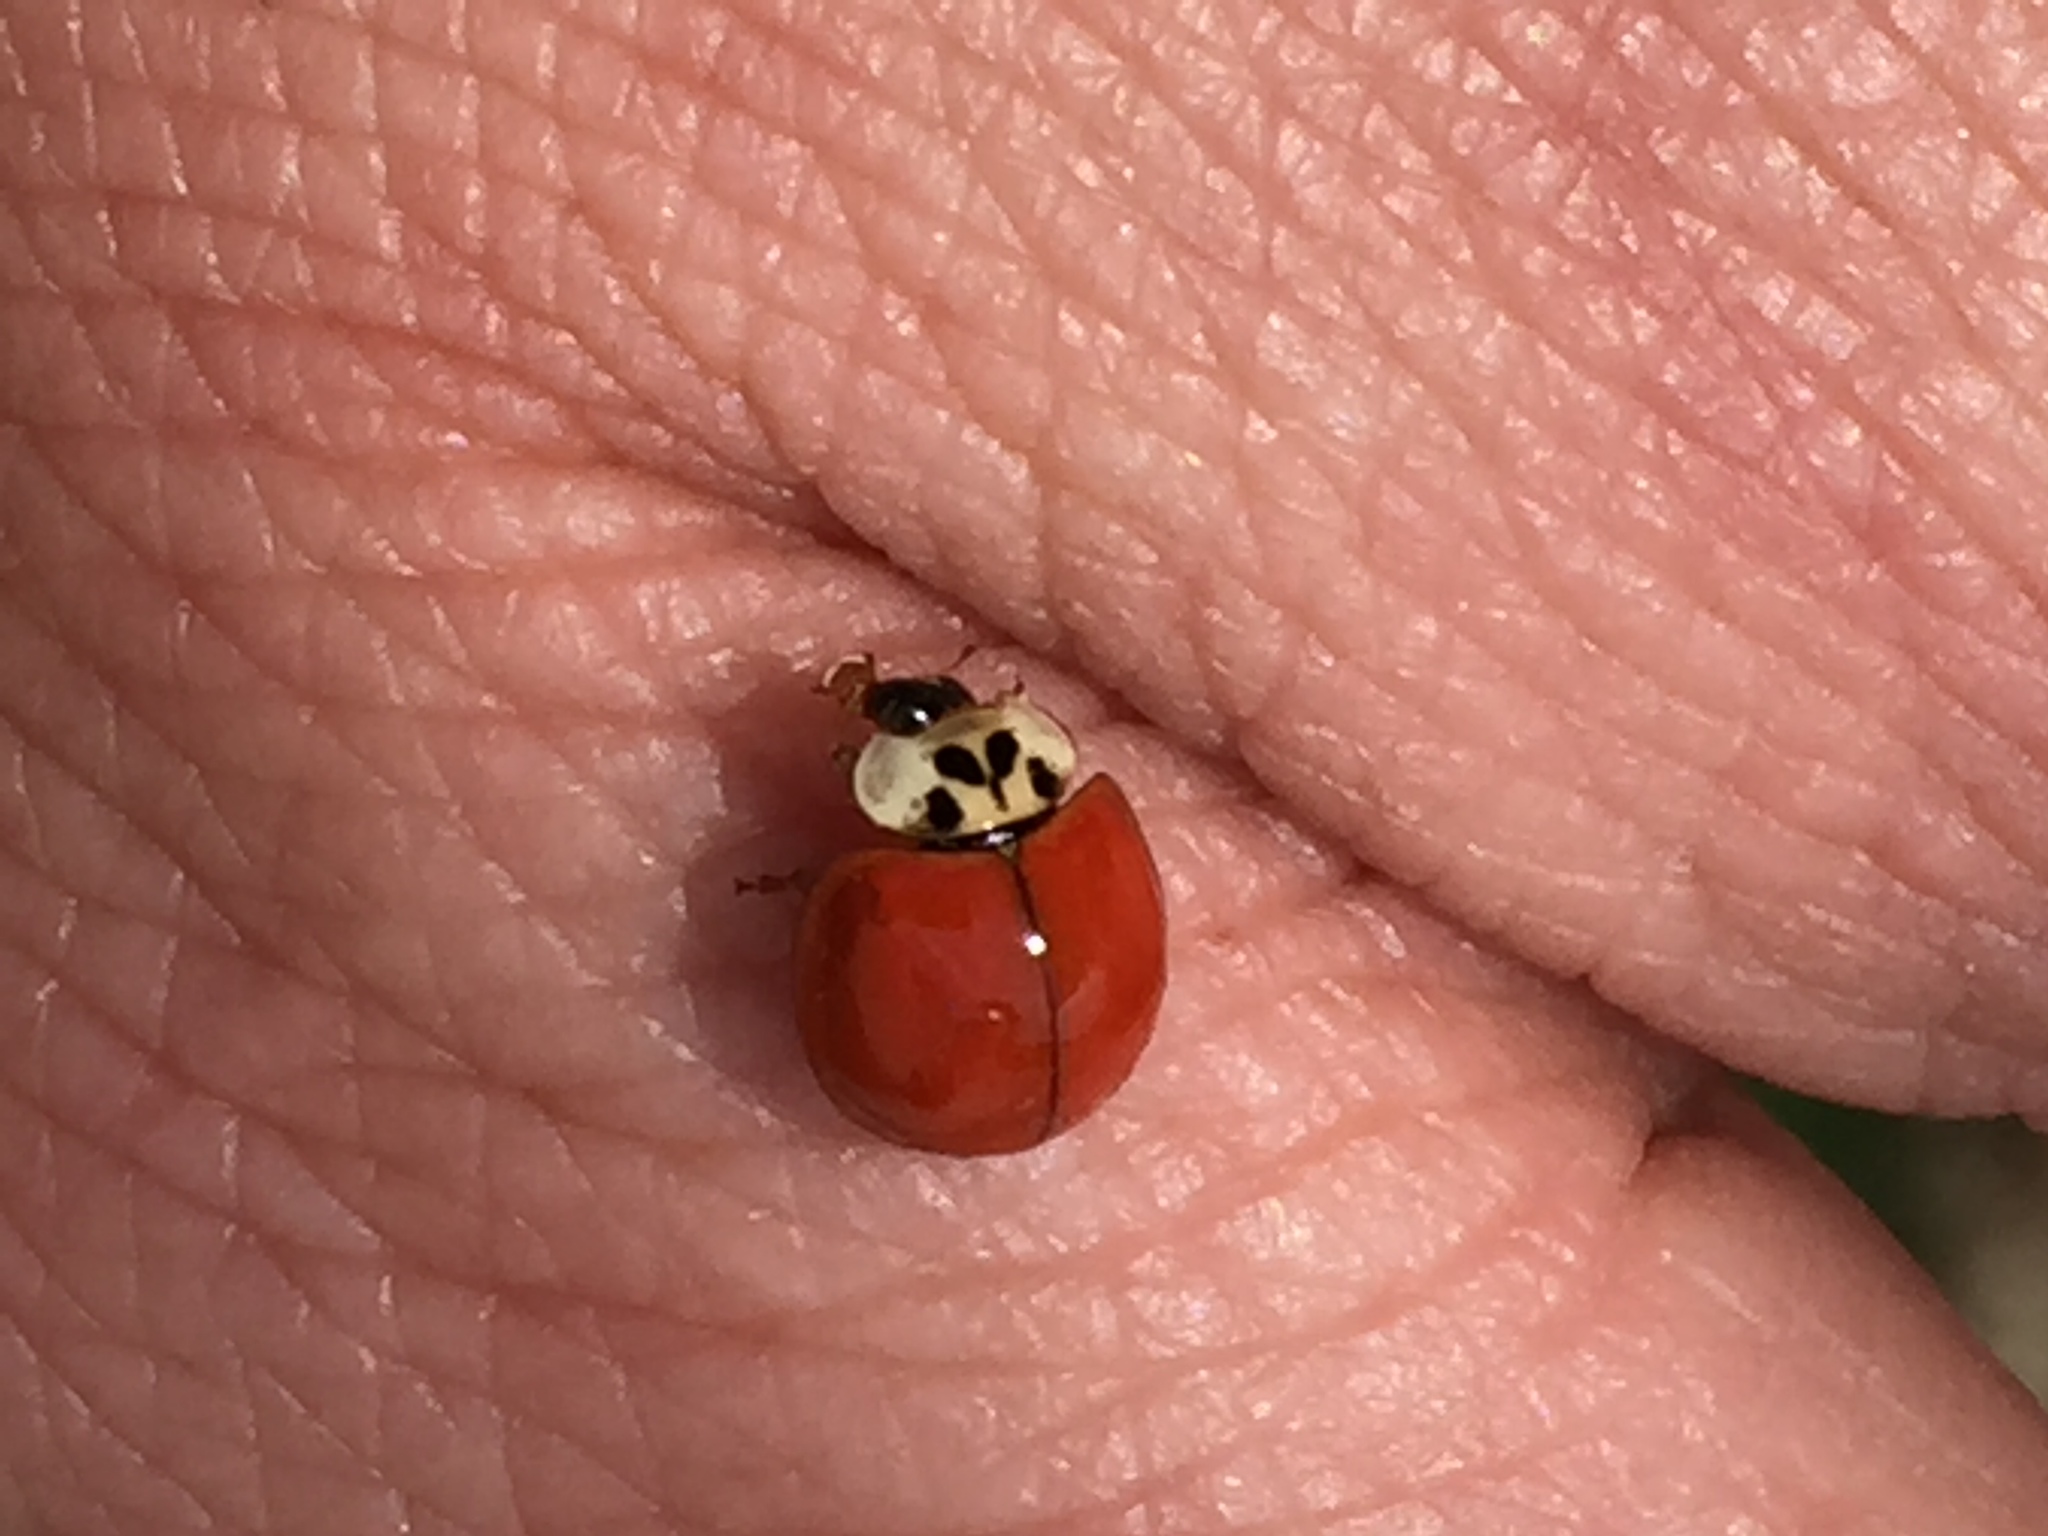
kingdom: Animalia
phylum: Arthropoda
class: Insecta
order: Coleoptera
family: Coccinellidae
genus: Harmonia
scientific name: Harmonia axyridis
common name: Harlequin ladybird
